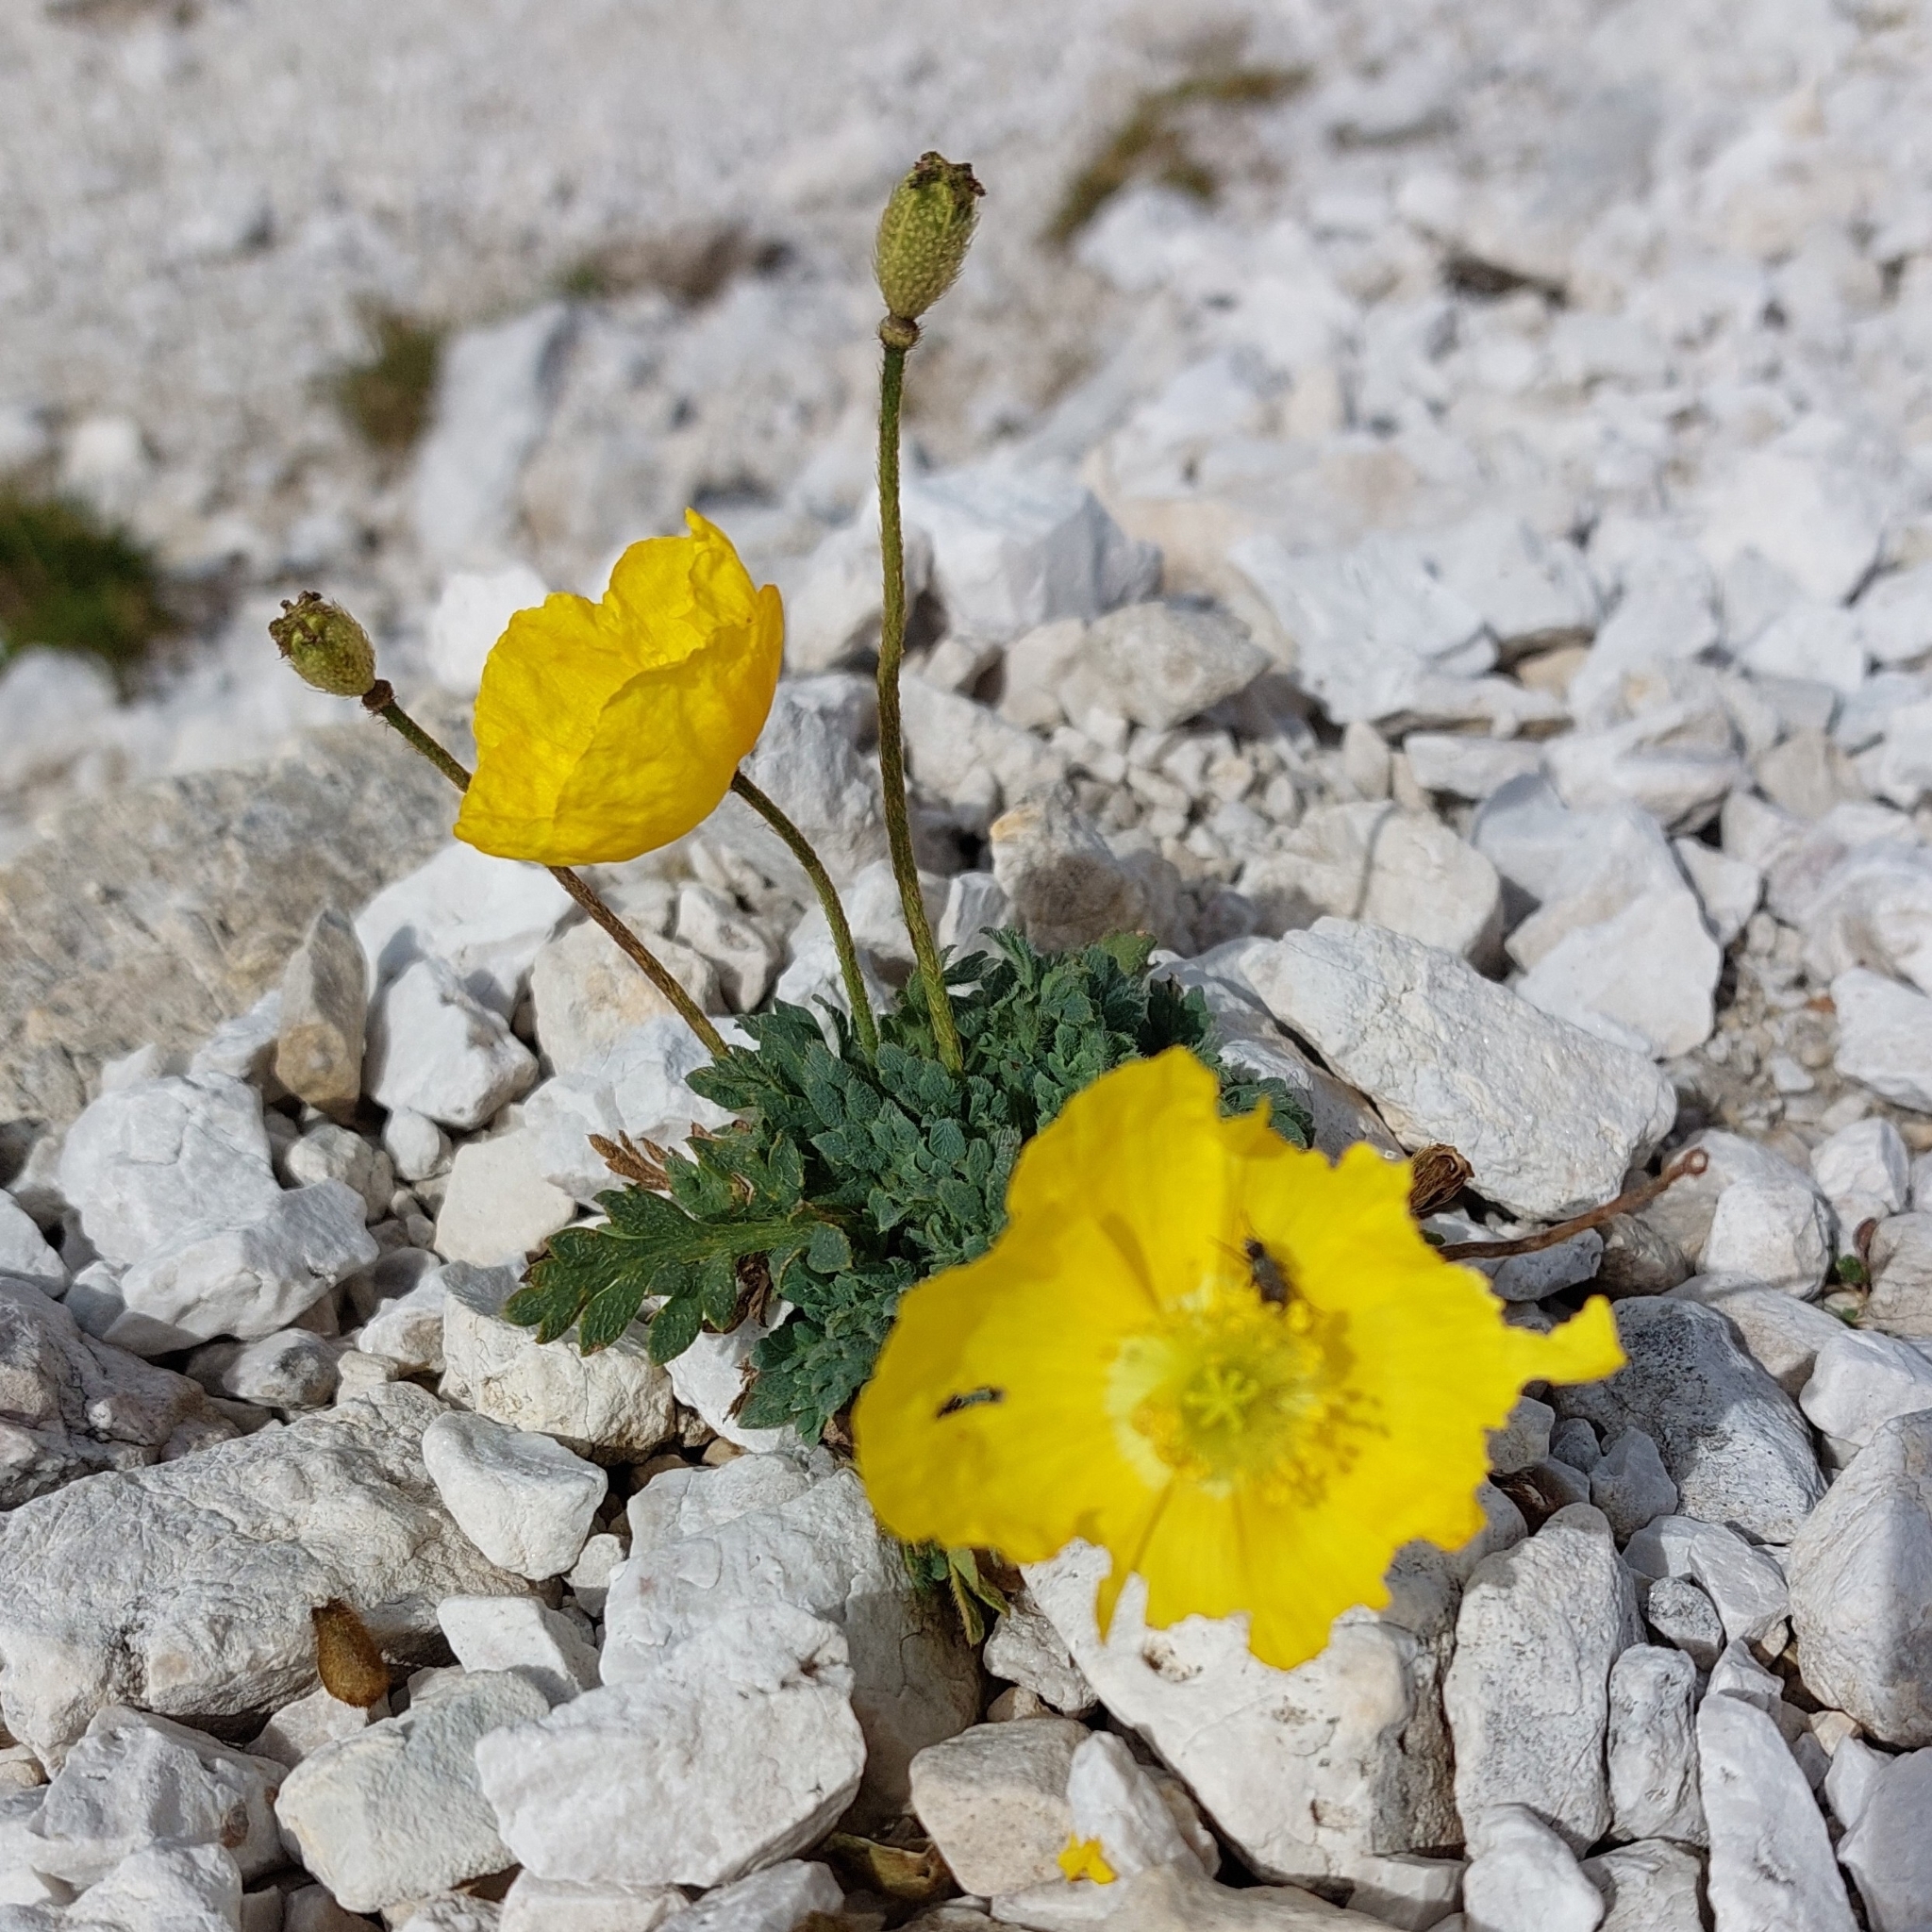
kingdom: Plantae
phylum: Tracheophyta
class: Magnoliopsida
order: Ranunculales
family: Papaveraceae
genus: Papaver
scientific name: Papaver alpinum
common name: Austrian poppy
